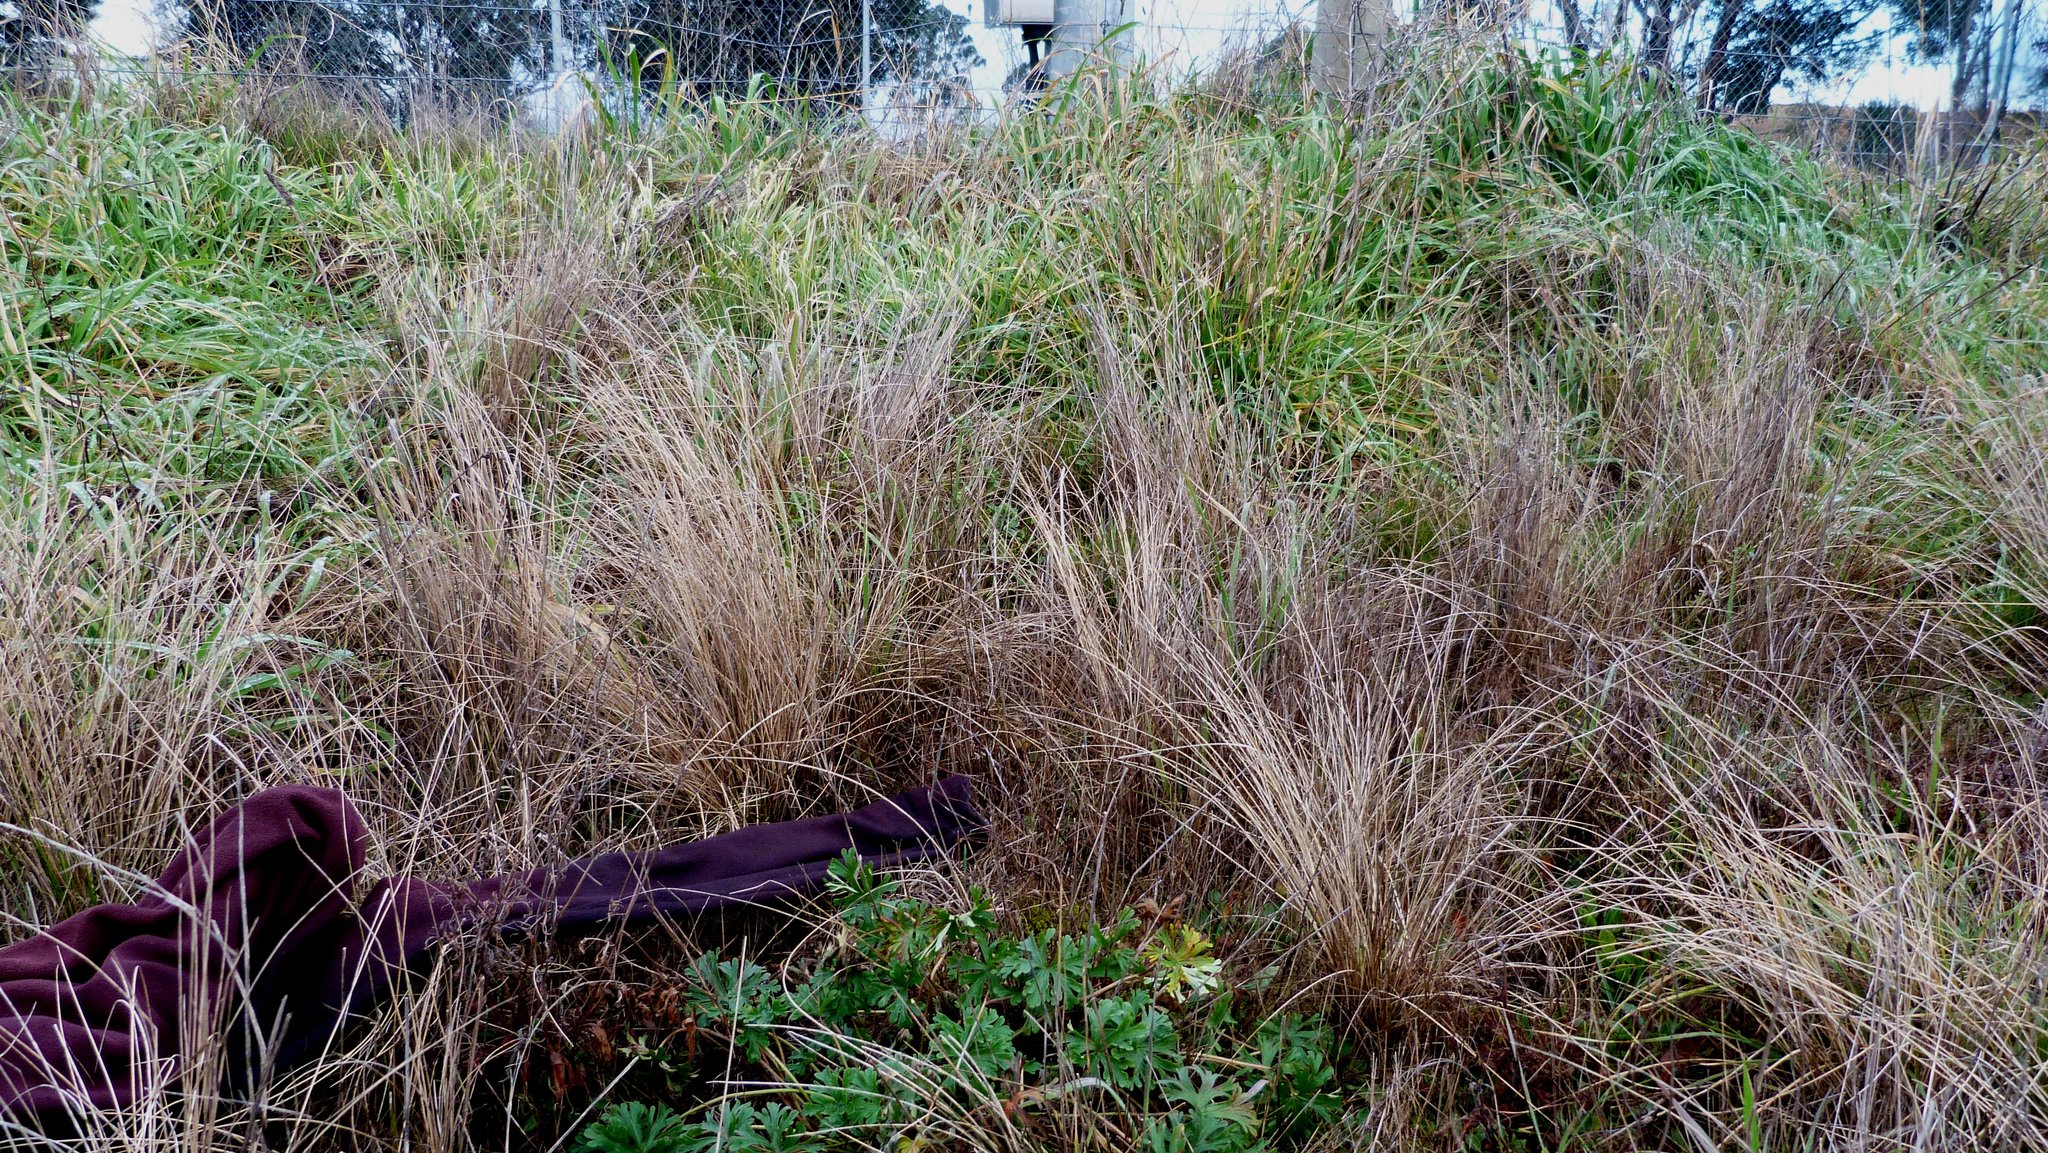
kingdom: Plantae
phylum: Tracheophyta
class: Magnoliopsida
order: Caryophyllales
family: Polygonaceae
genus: Muehlenbeckia
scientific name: Muehlenbeckia
